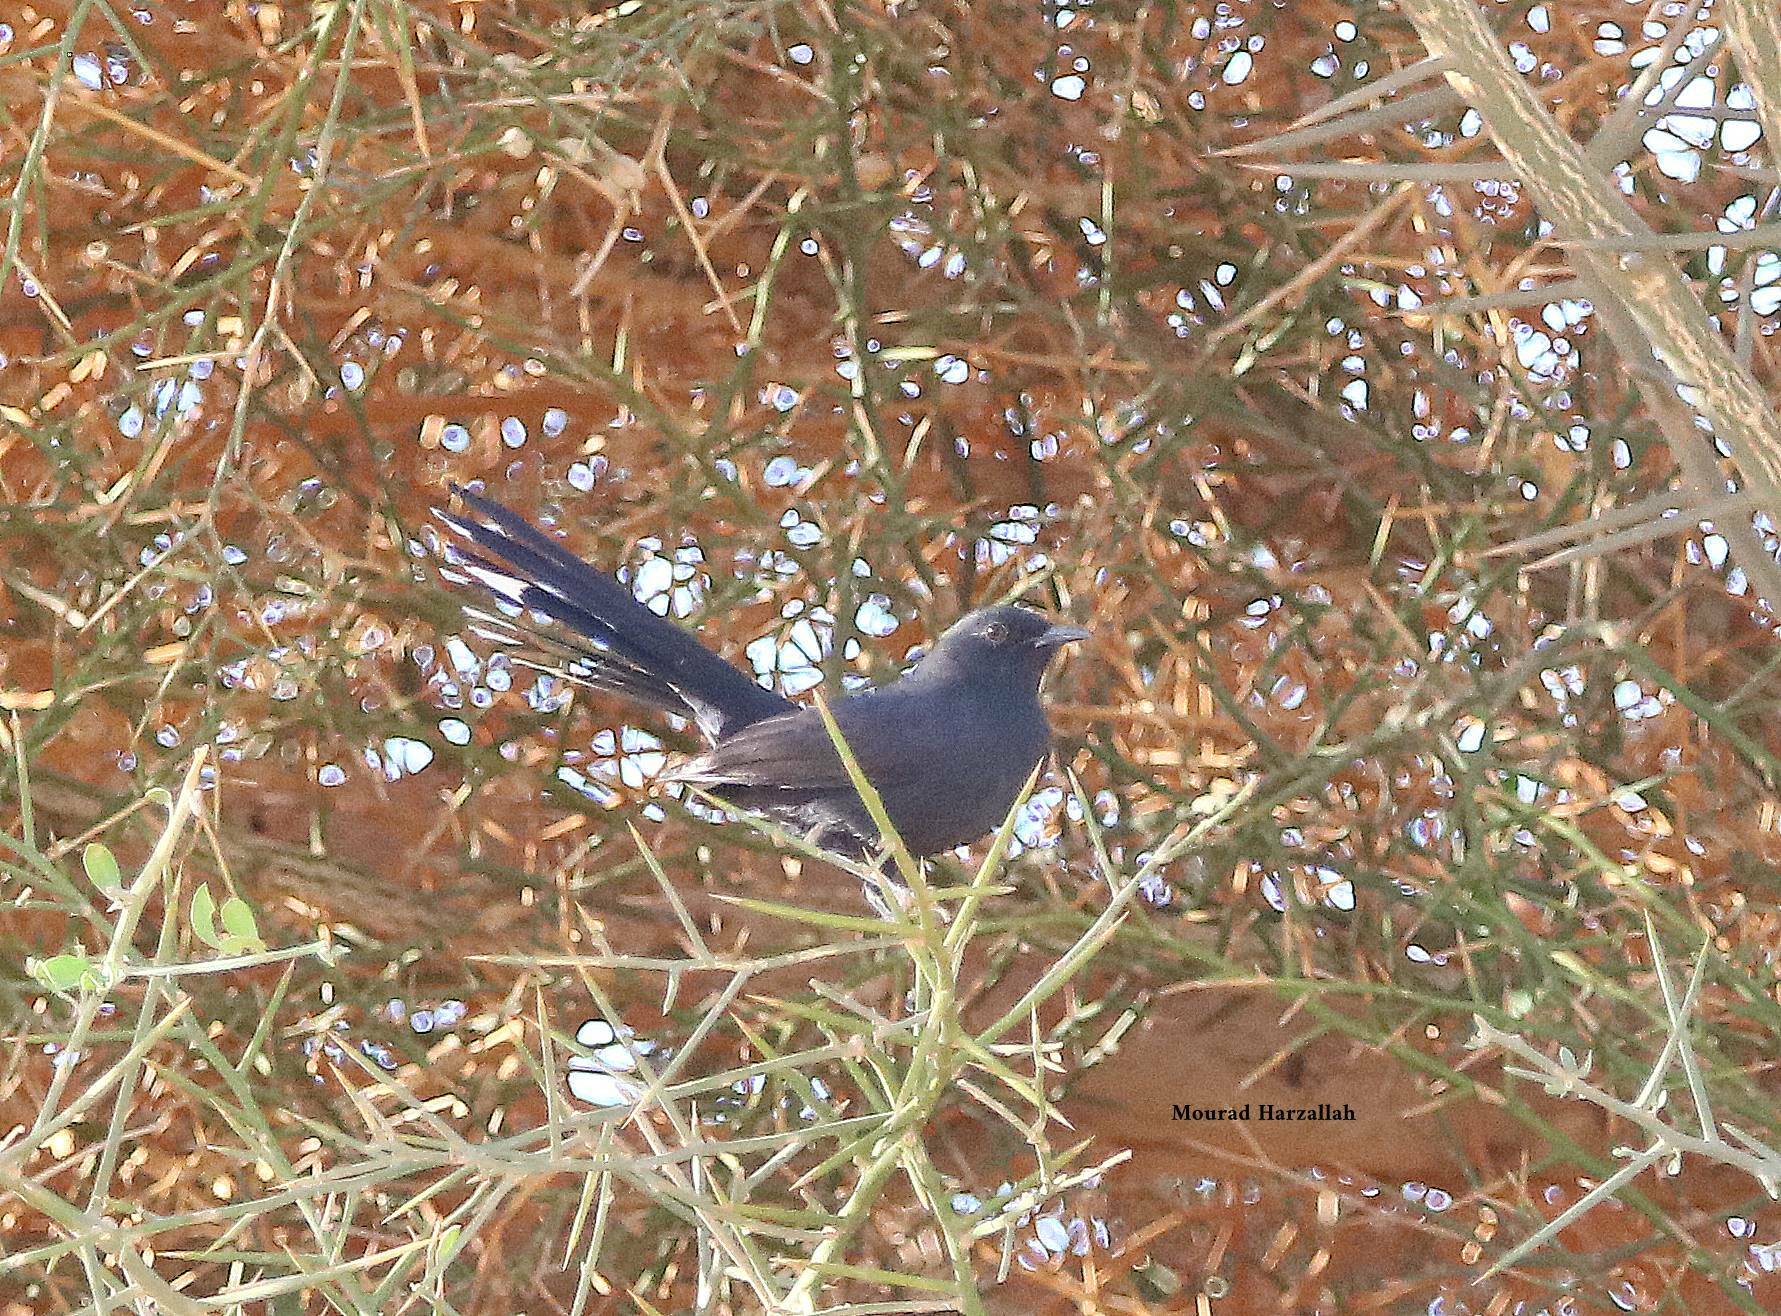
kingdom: Animalia
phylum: Chordata
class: Aves
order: Passeriformes
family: Muscicapidae
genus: Cercotrichas
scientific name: Cercotrichas podobe
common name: Black scrub robin
